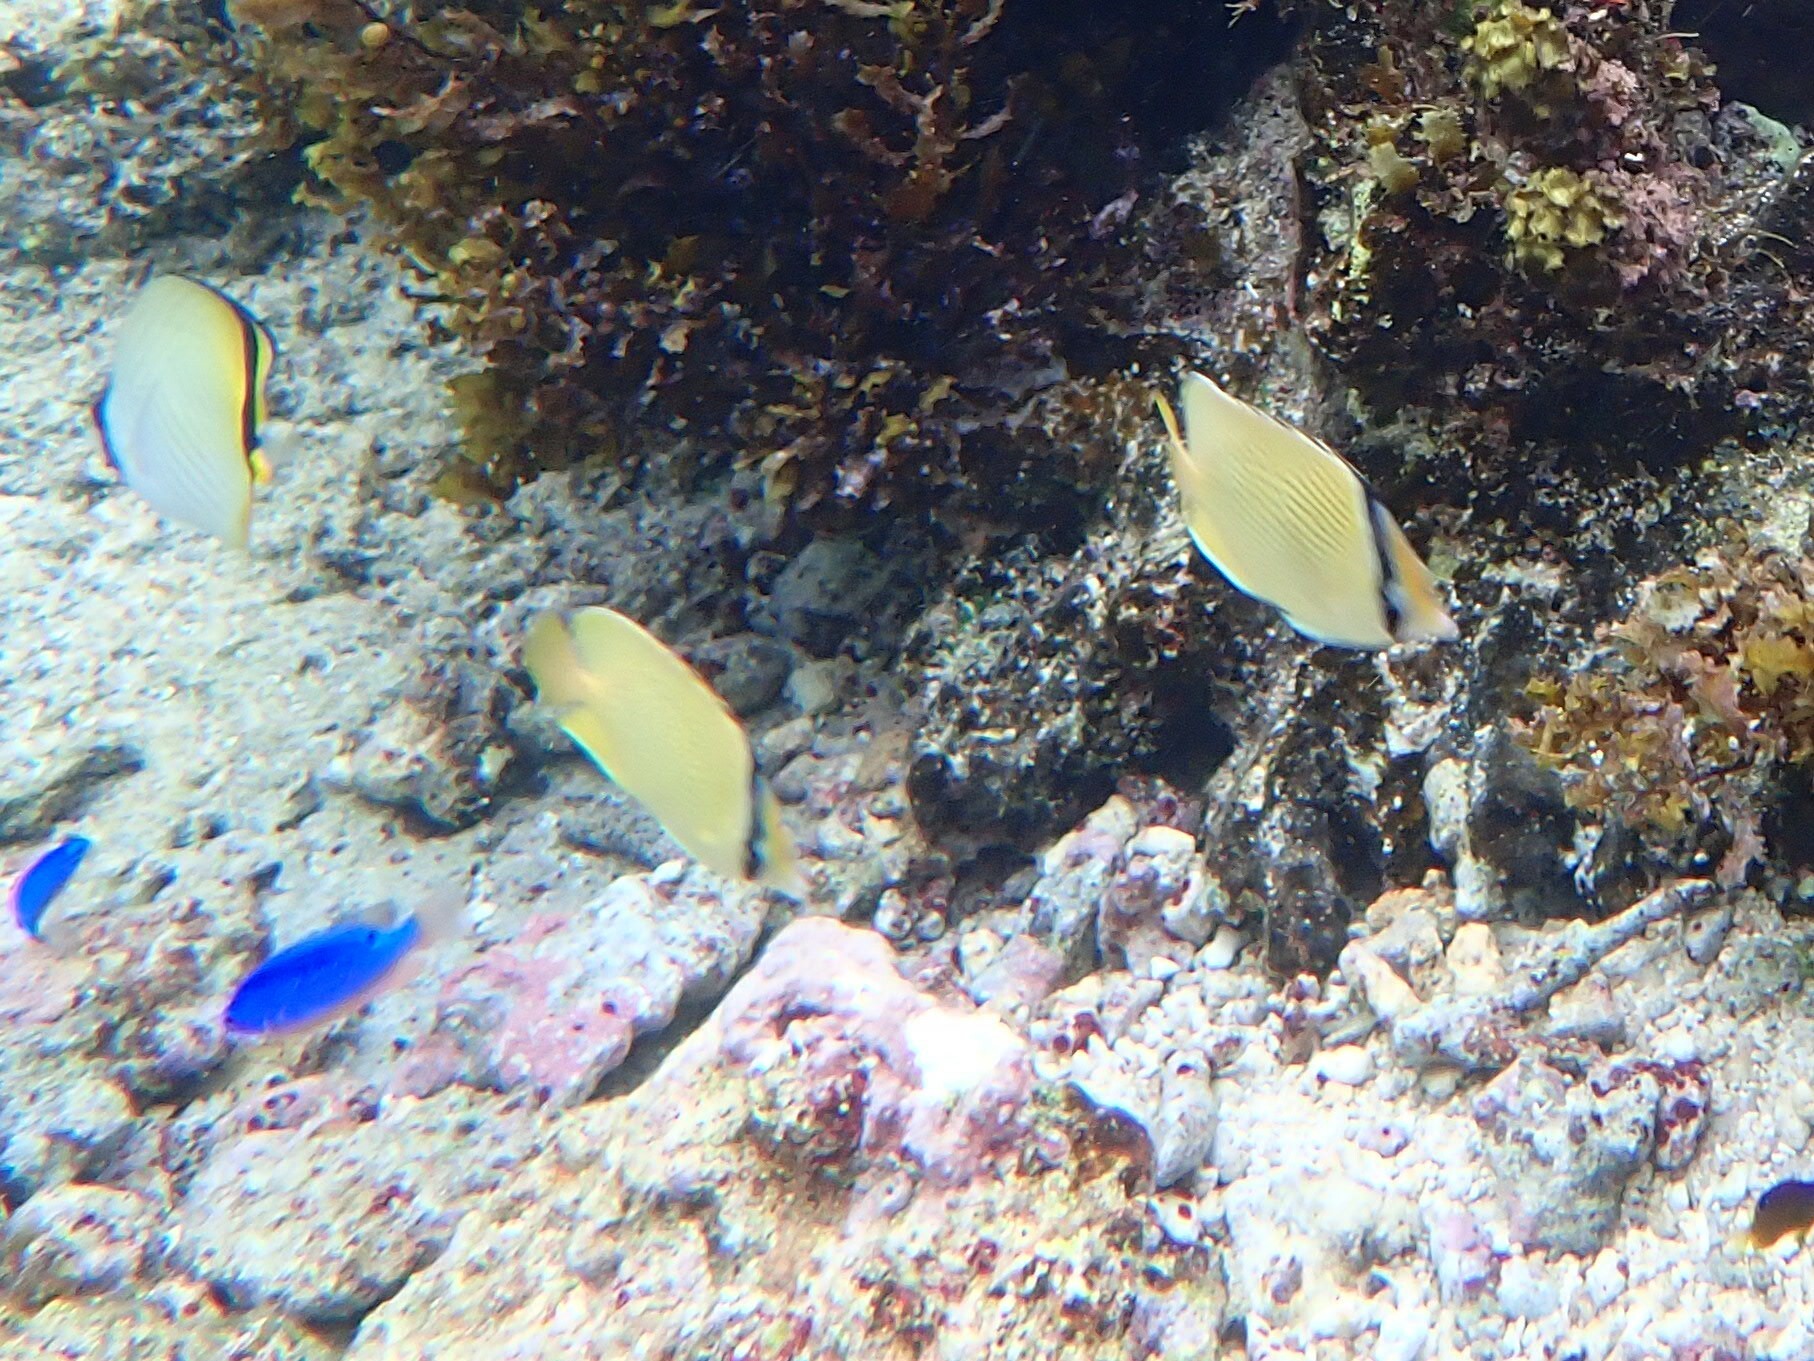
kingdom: Animalia
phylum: Chordata
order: Perciformes
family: Chaetodontidae
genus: Chaetodon
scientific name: Chaetodon citrinellus
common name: Speckled butterflyfish
